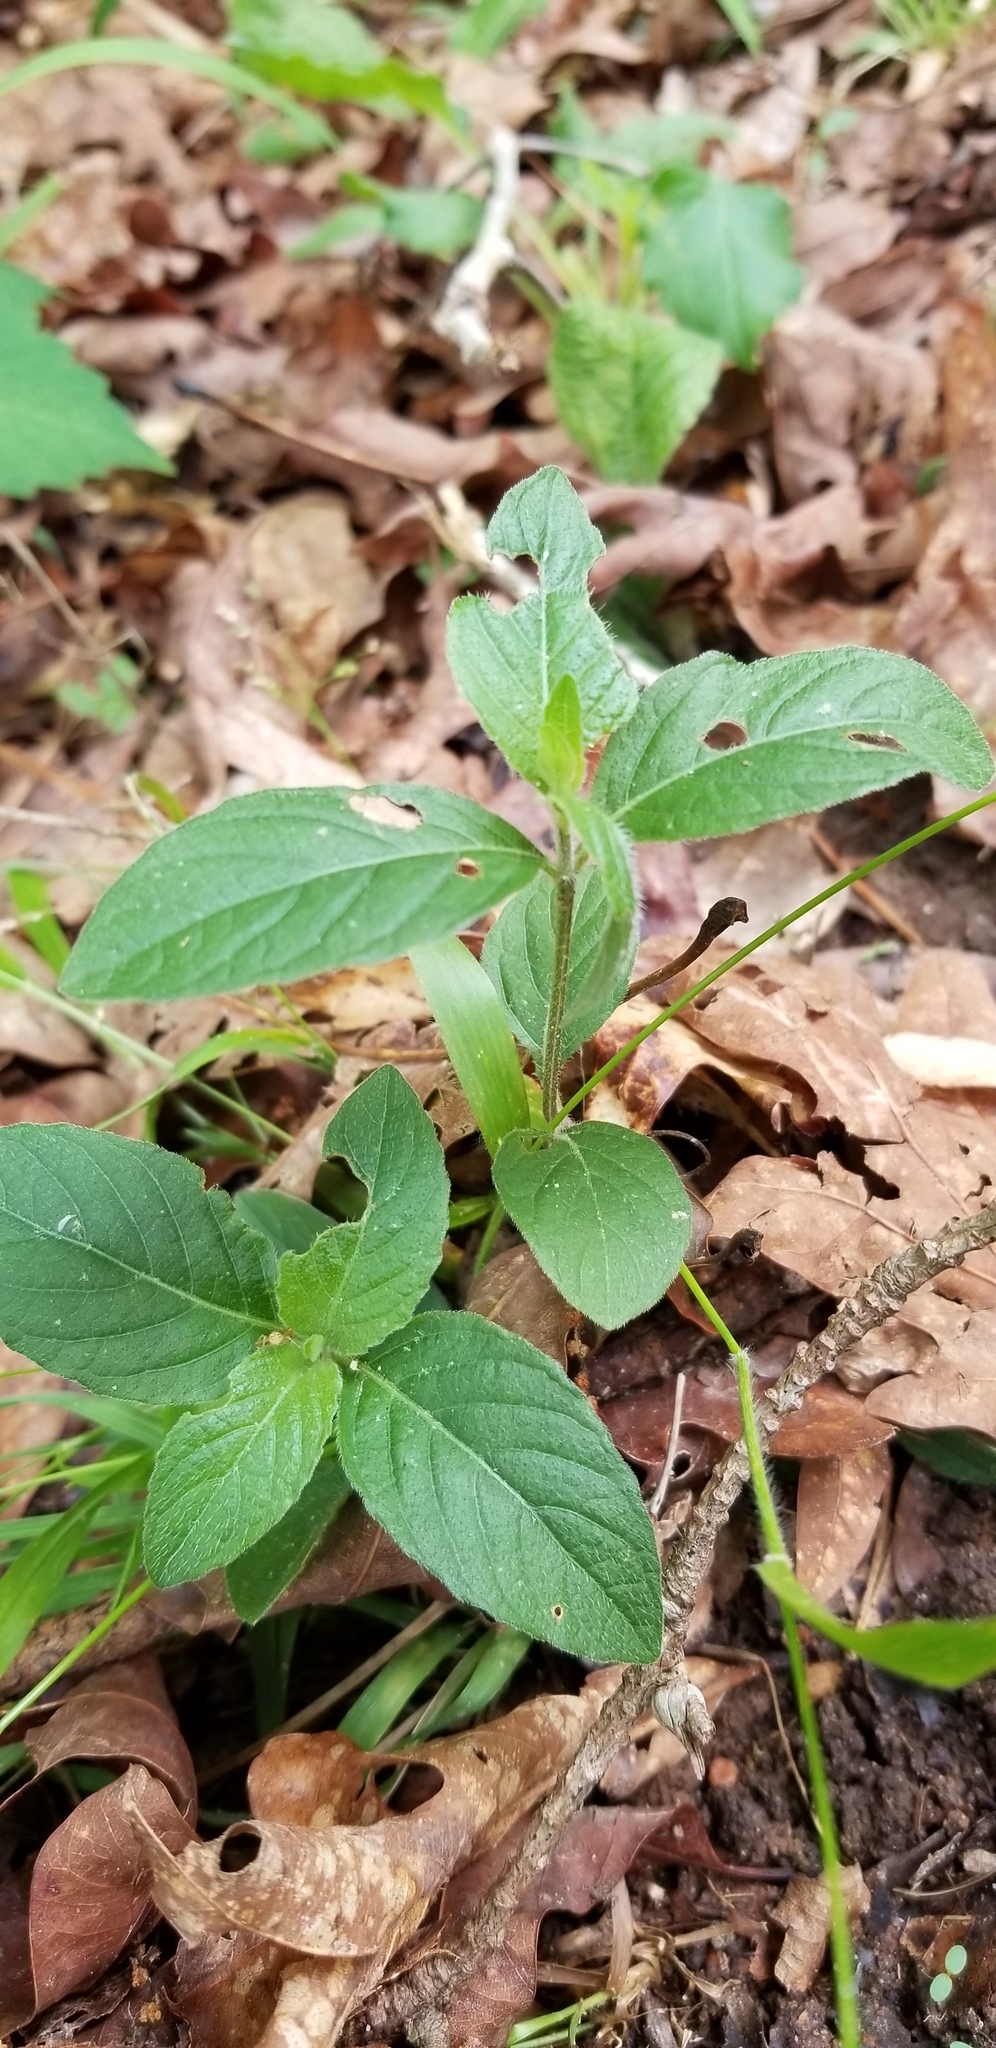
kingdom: Plantae
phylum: Tracheophyta
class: Magnoliopsida
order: Lamiales
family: Acanthaceae
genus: Ruellia
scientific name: Ruellia caroliniensis
